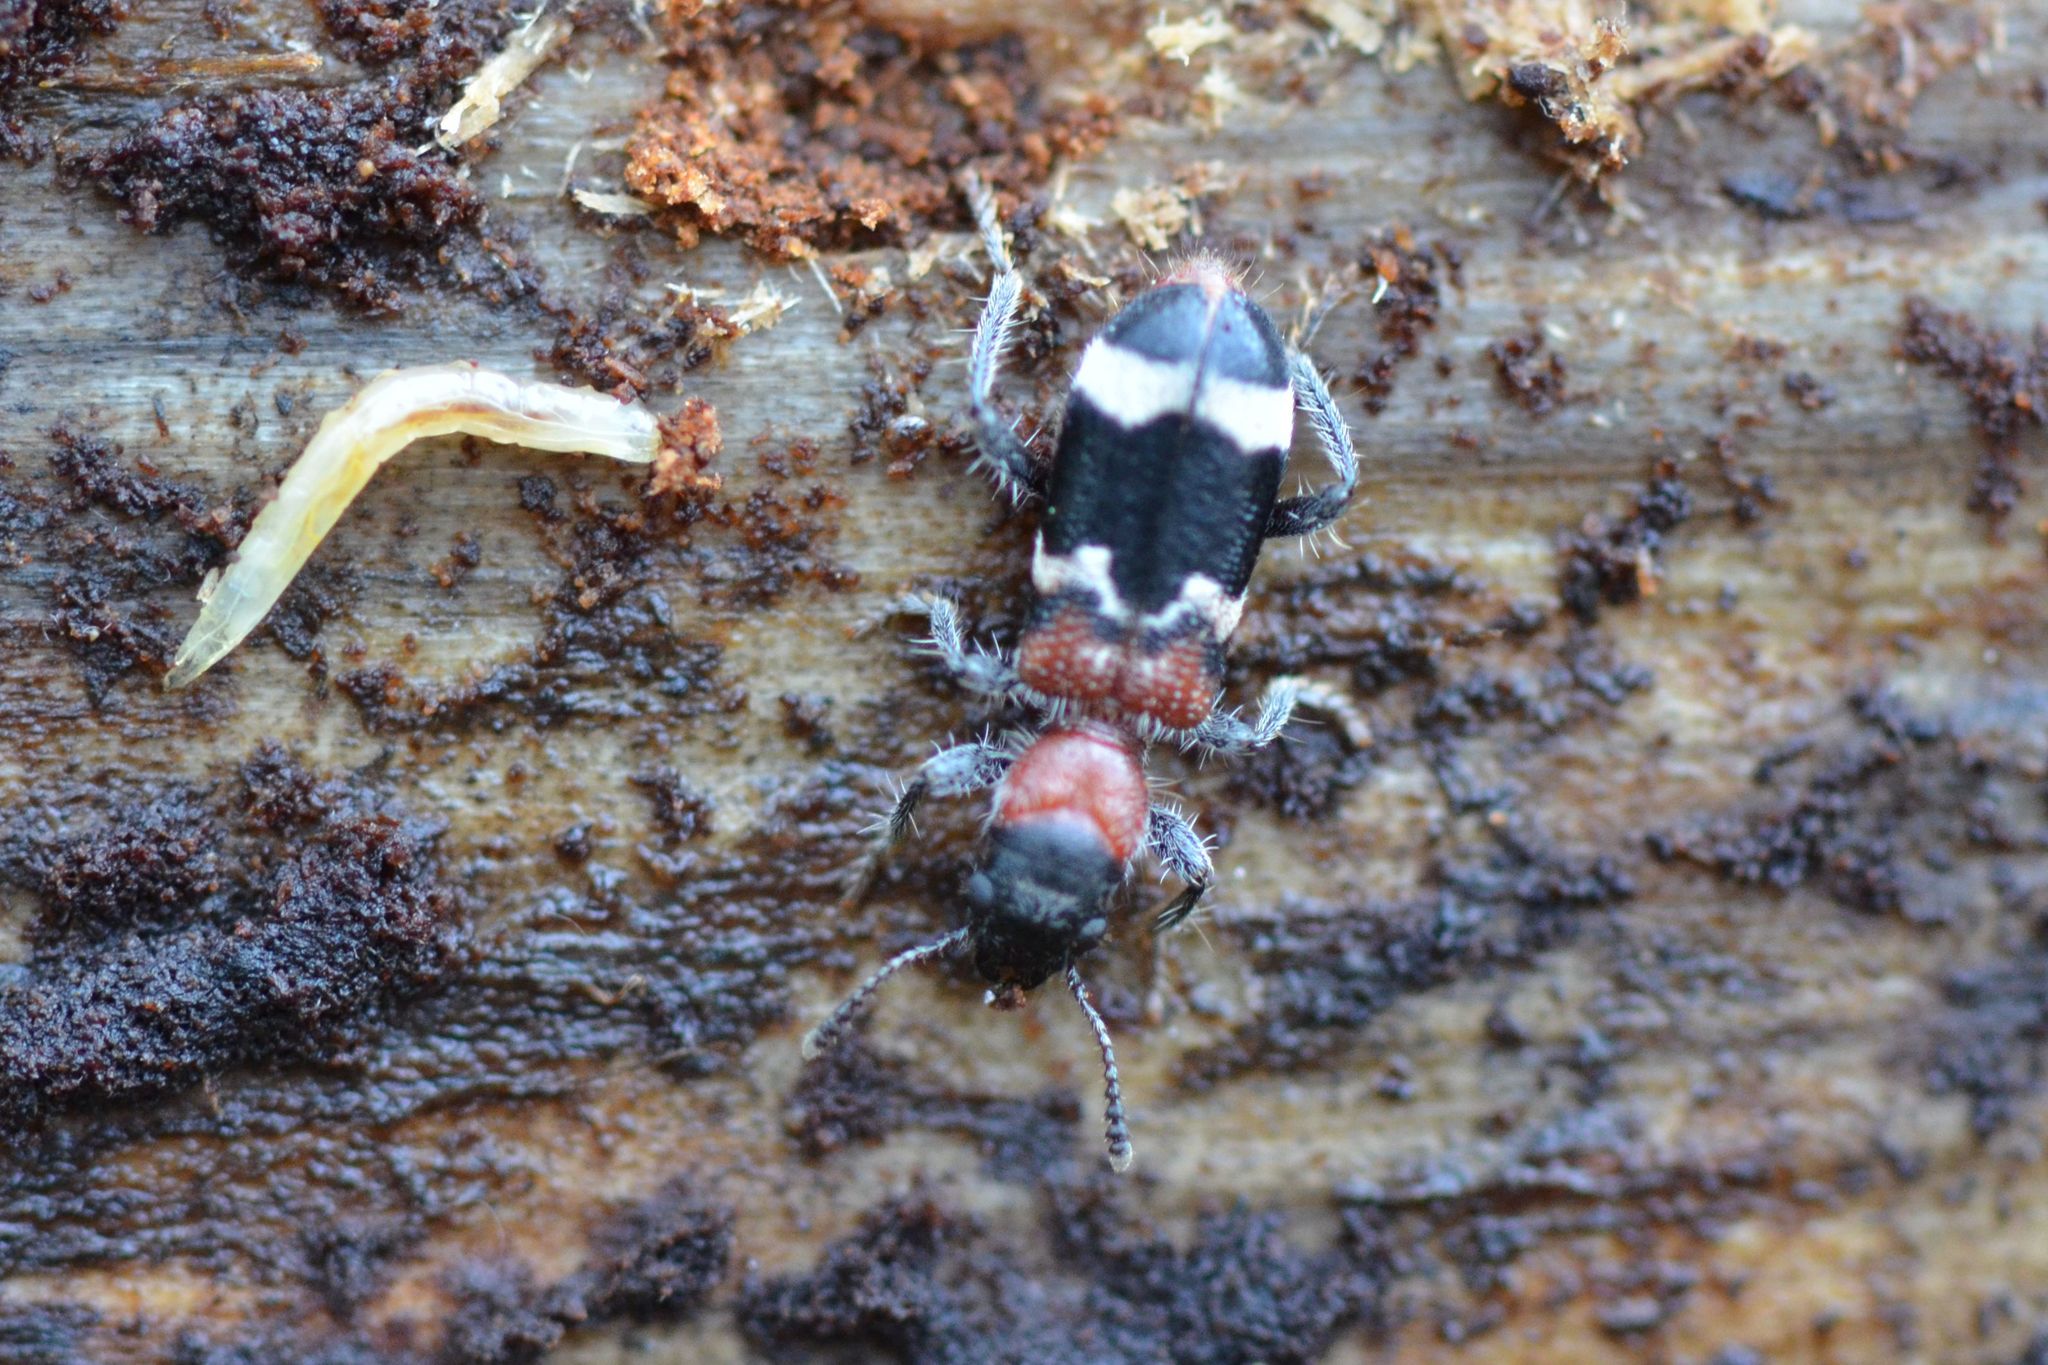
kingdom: Animalia
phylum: Arthropoda
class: Insecta
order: Coleoptera
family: Cleridae
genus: Thanasimus
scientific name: Thanasimus formicarius
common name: Ant beetle
